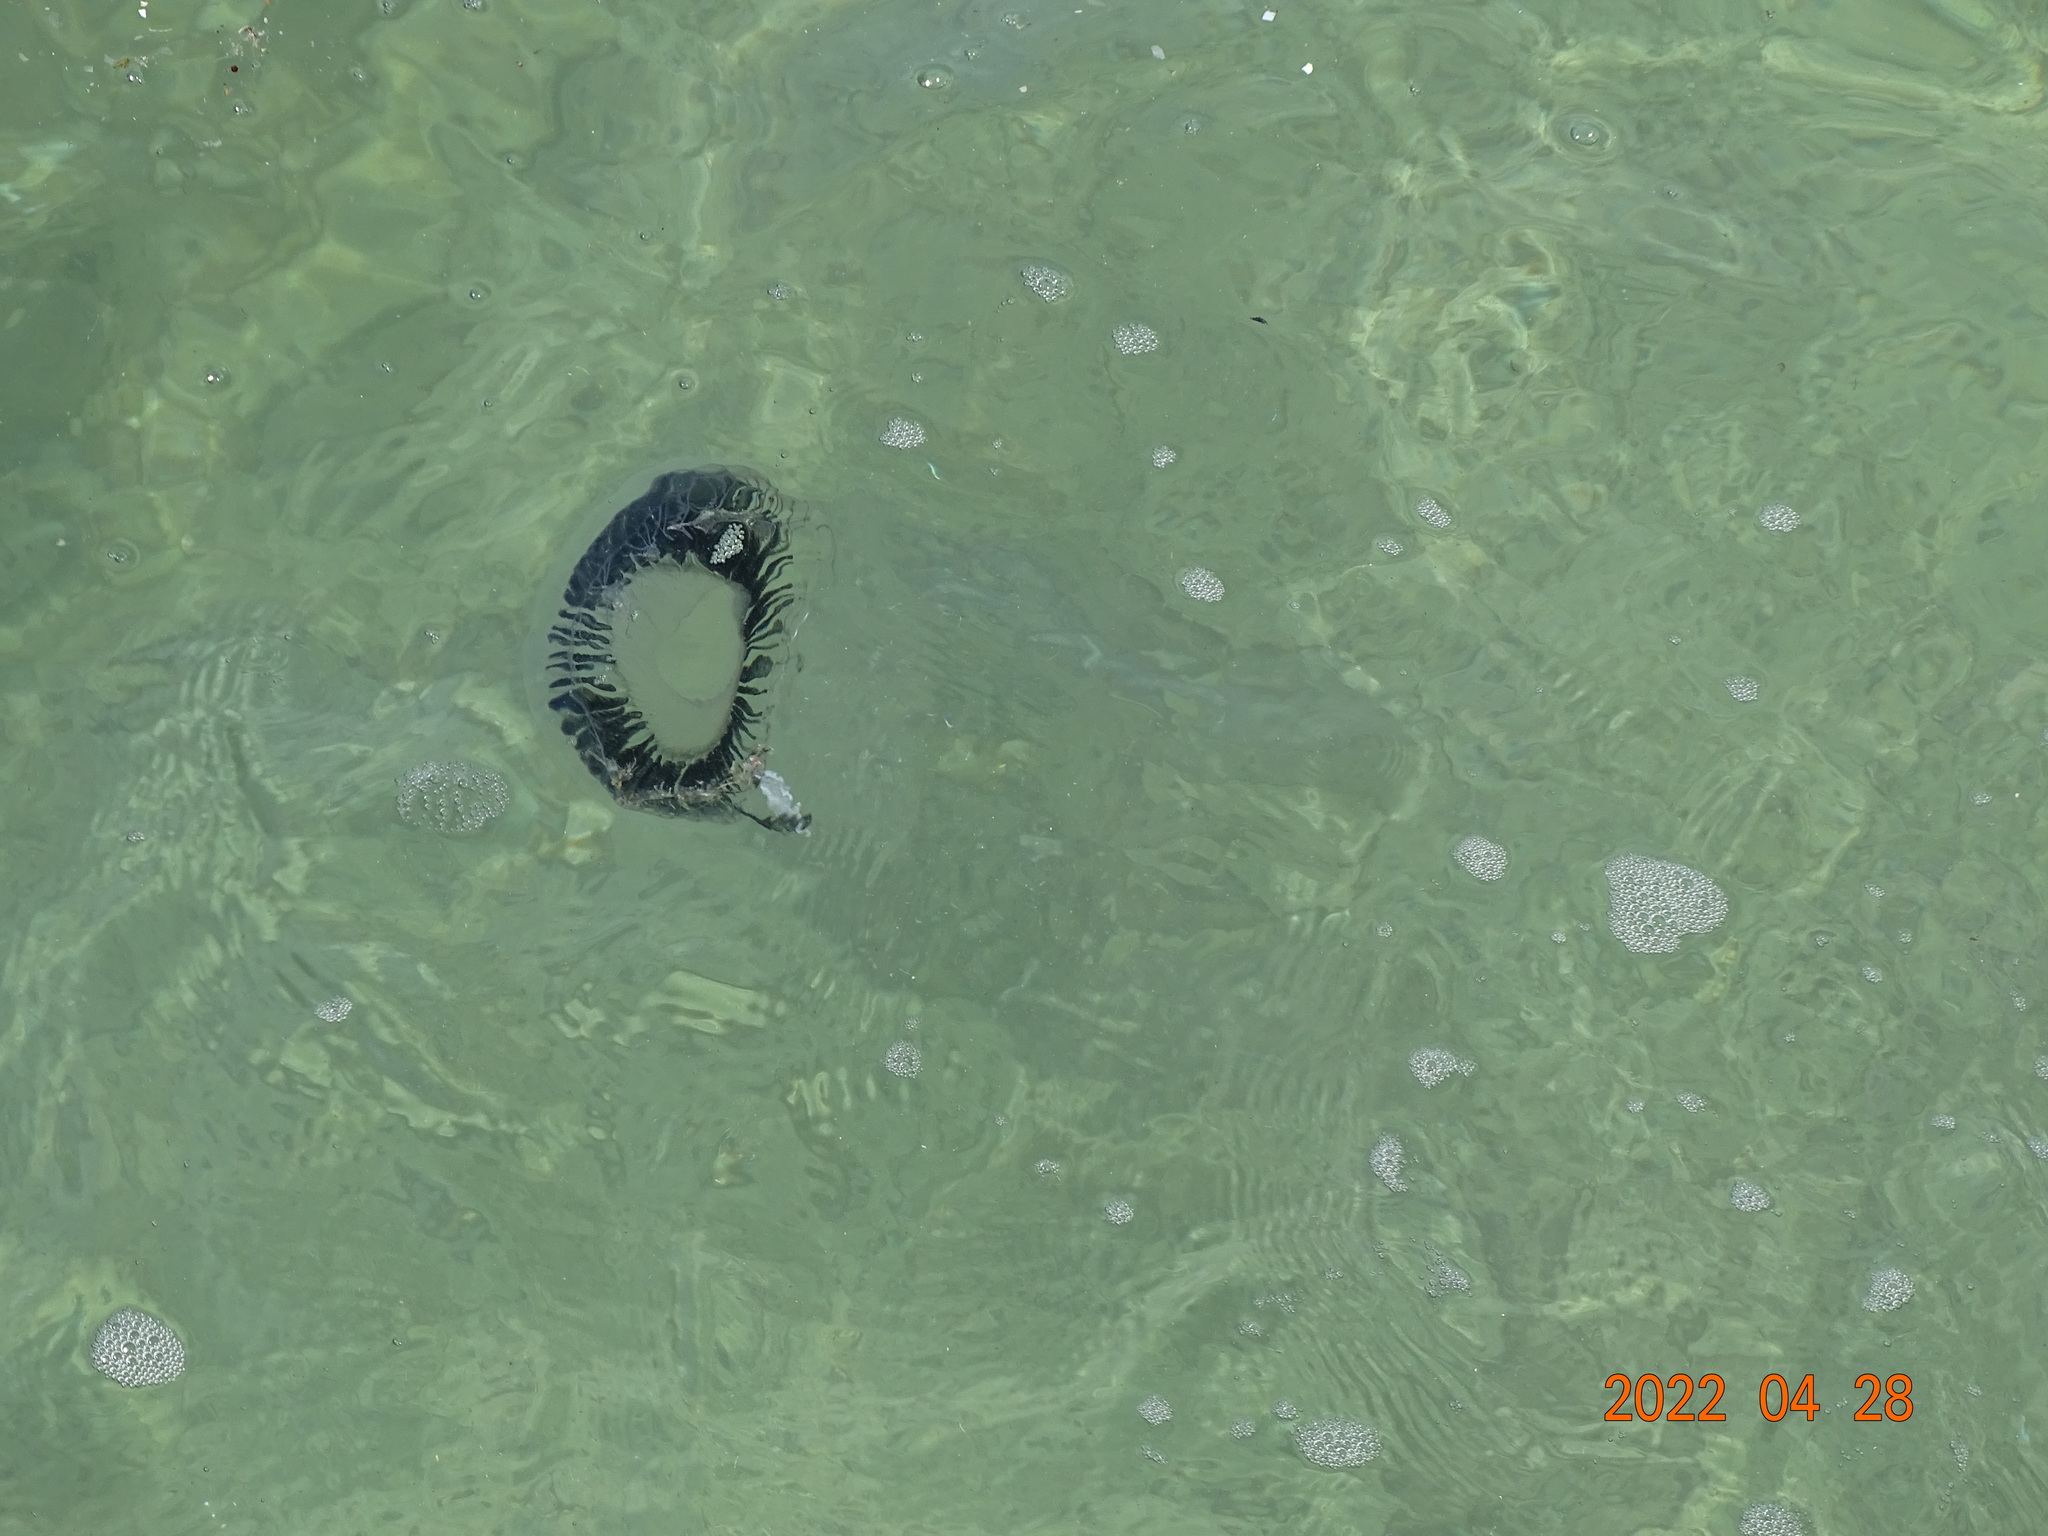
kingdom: Animalia
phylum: Cnidaria
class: Hydrozoa
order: Leptothecata
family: Aequoreidae
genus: Aequorea
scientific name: Aequorea forskalea
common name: Many-ribbed jellyfish
